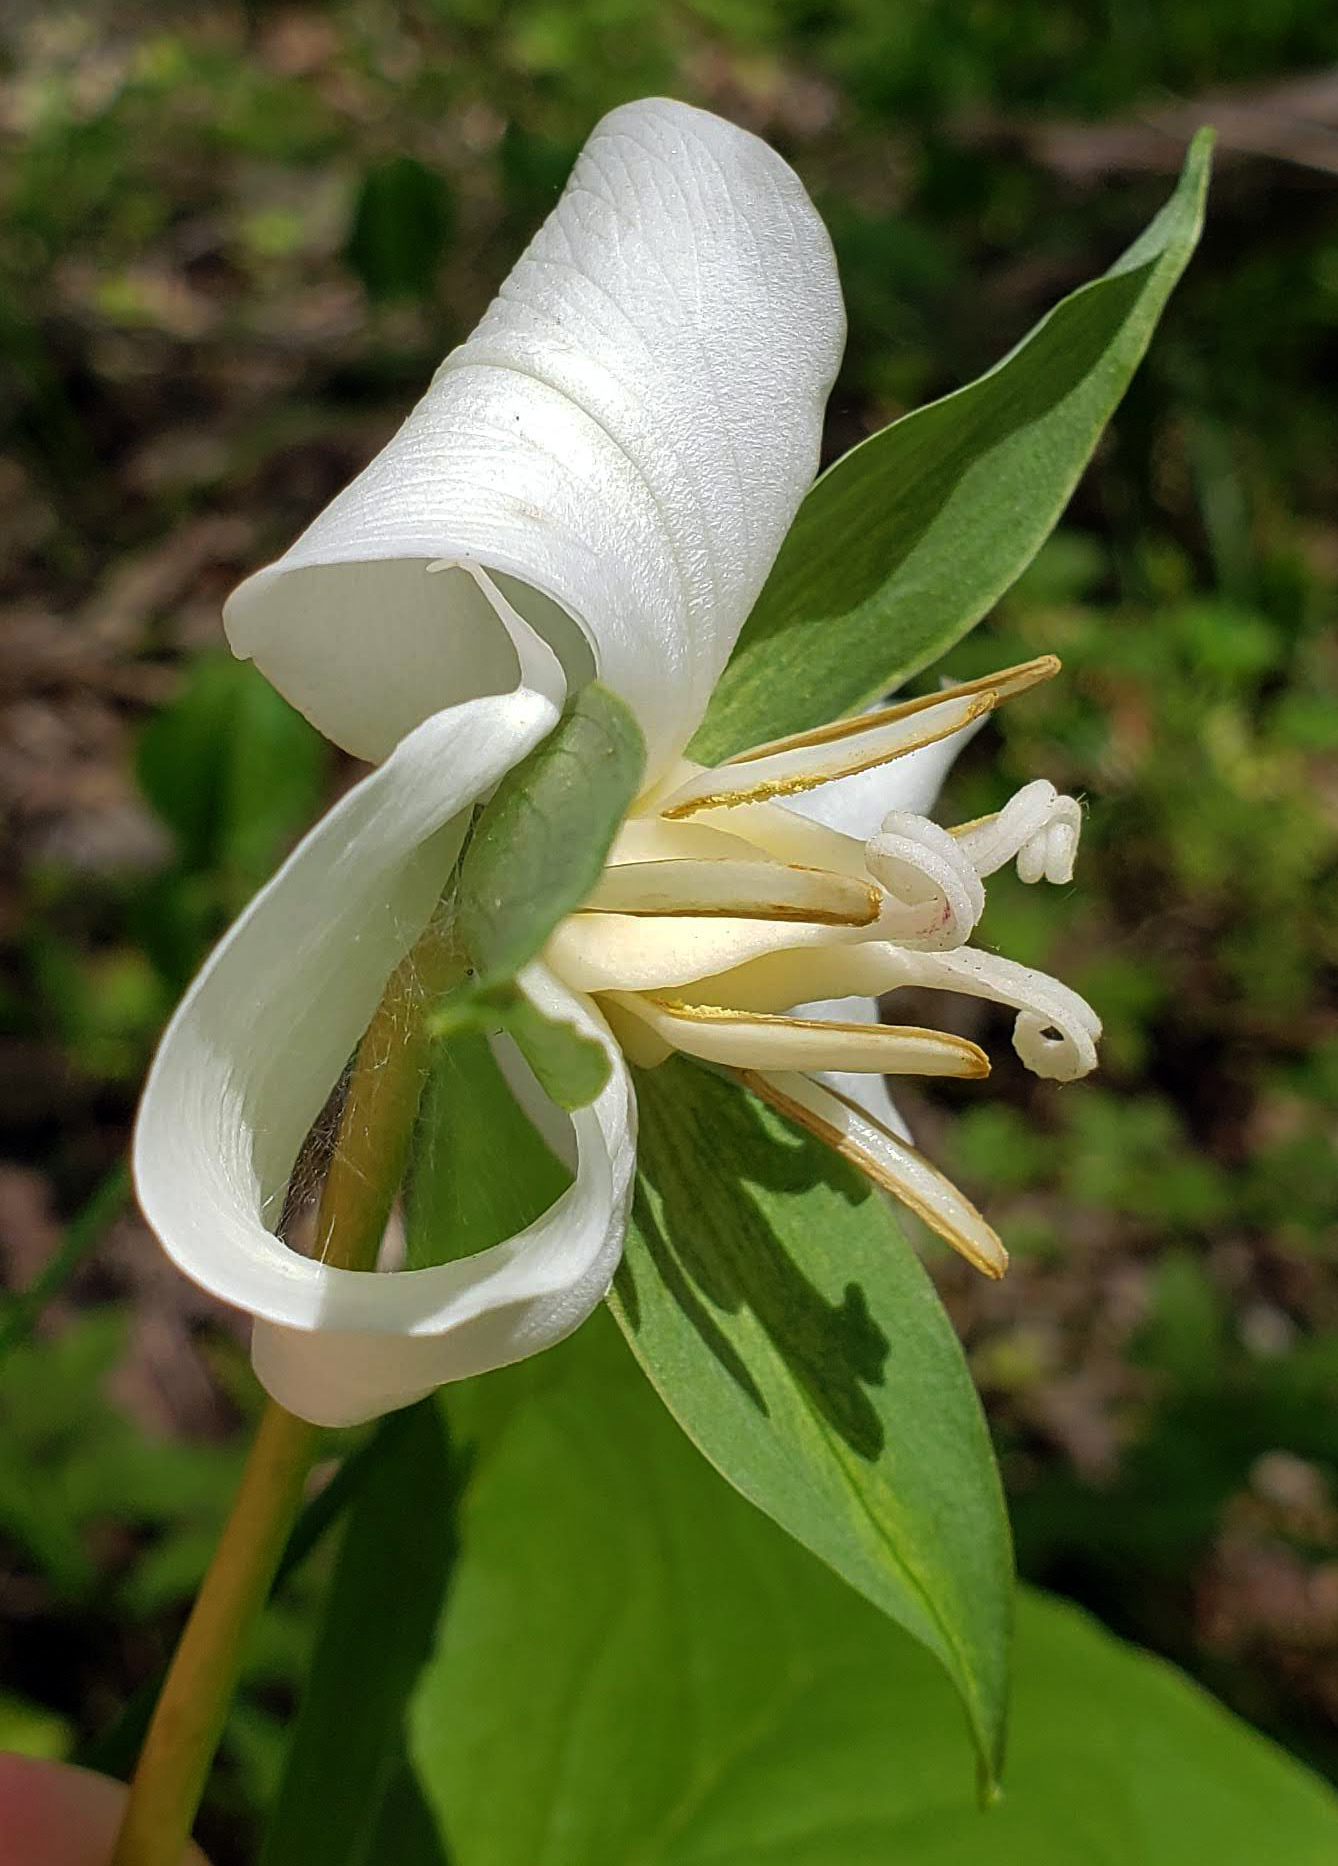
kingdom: Plantae
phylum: Tracheophyta
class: Liliopsida
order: Liliales
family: Melanthiaceae
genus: Trillium
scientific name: Trillium flexipes
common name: Drooping trillium
